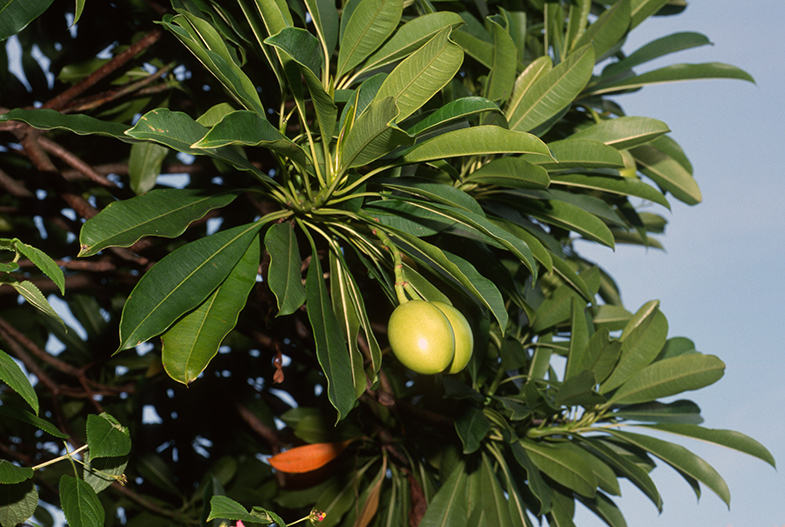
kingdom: Plantae
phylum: Tracheophyta
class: Magnoliopsida
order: Gentianales
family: Apocynaceae
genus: Cerbera
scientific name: Cerbera manghas
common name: Reva
